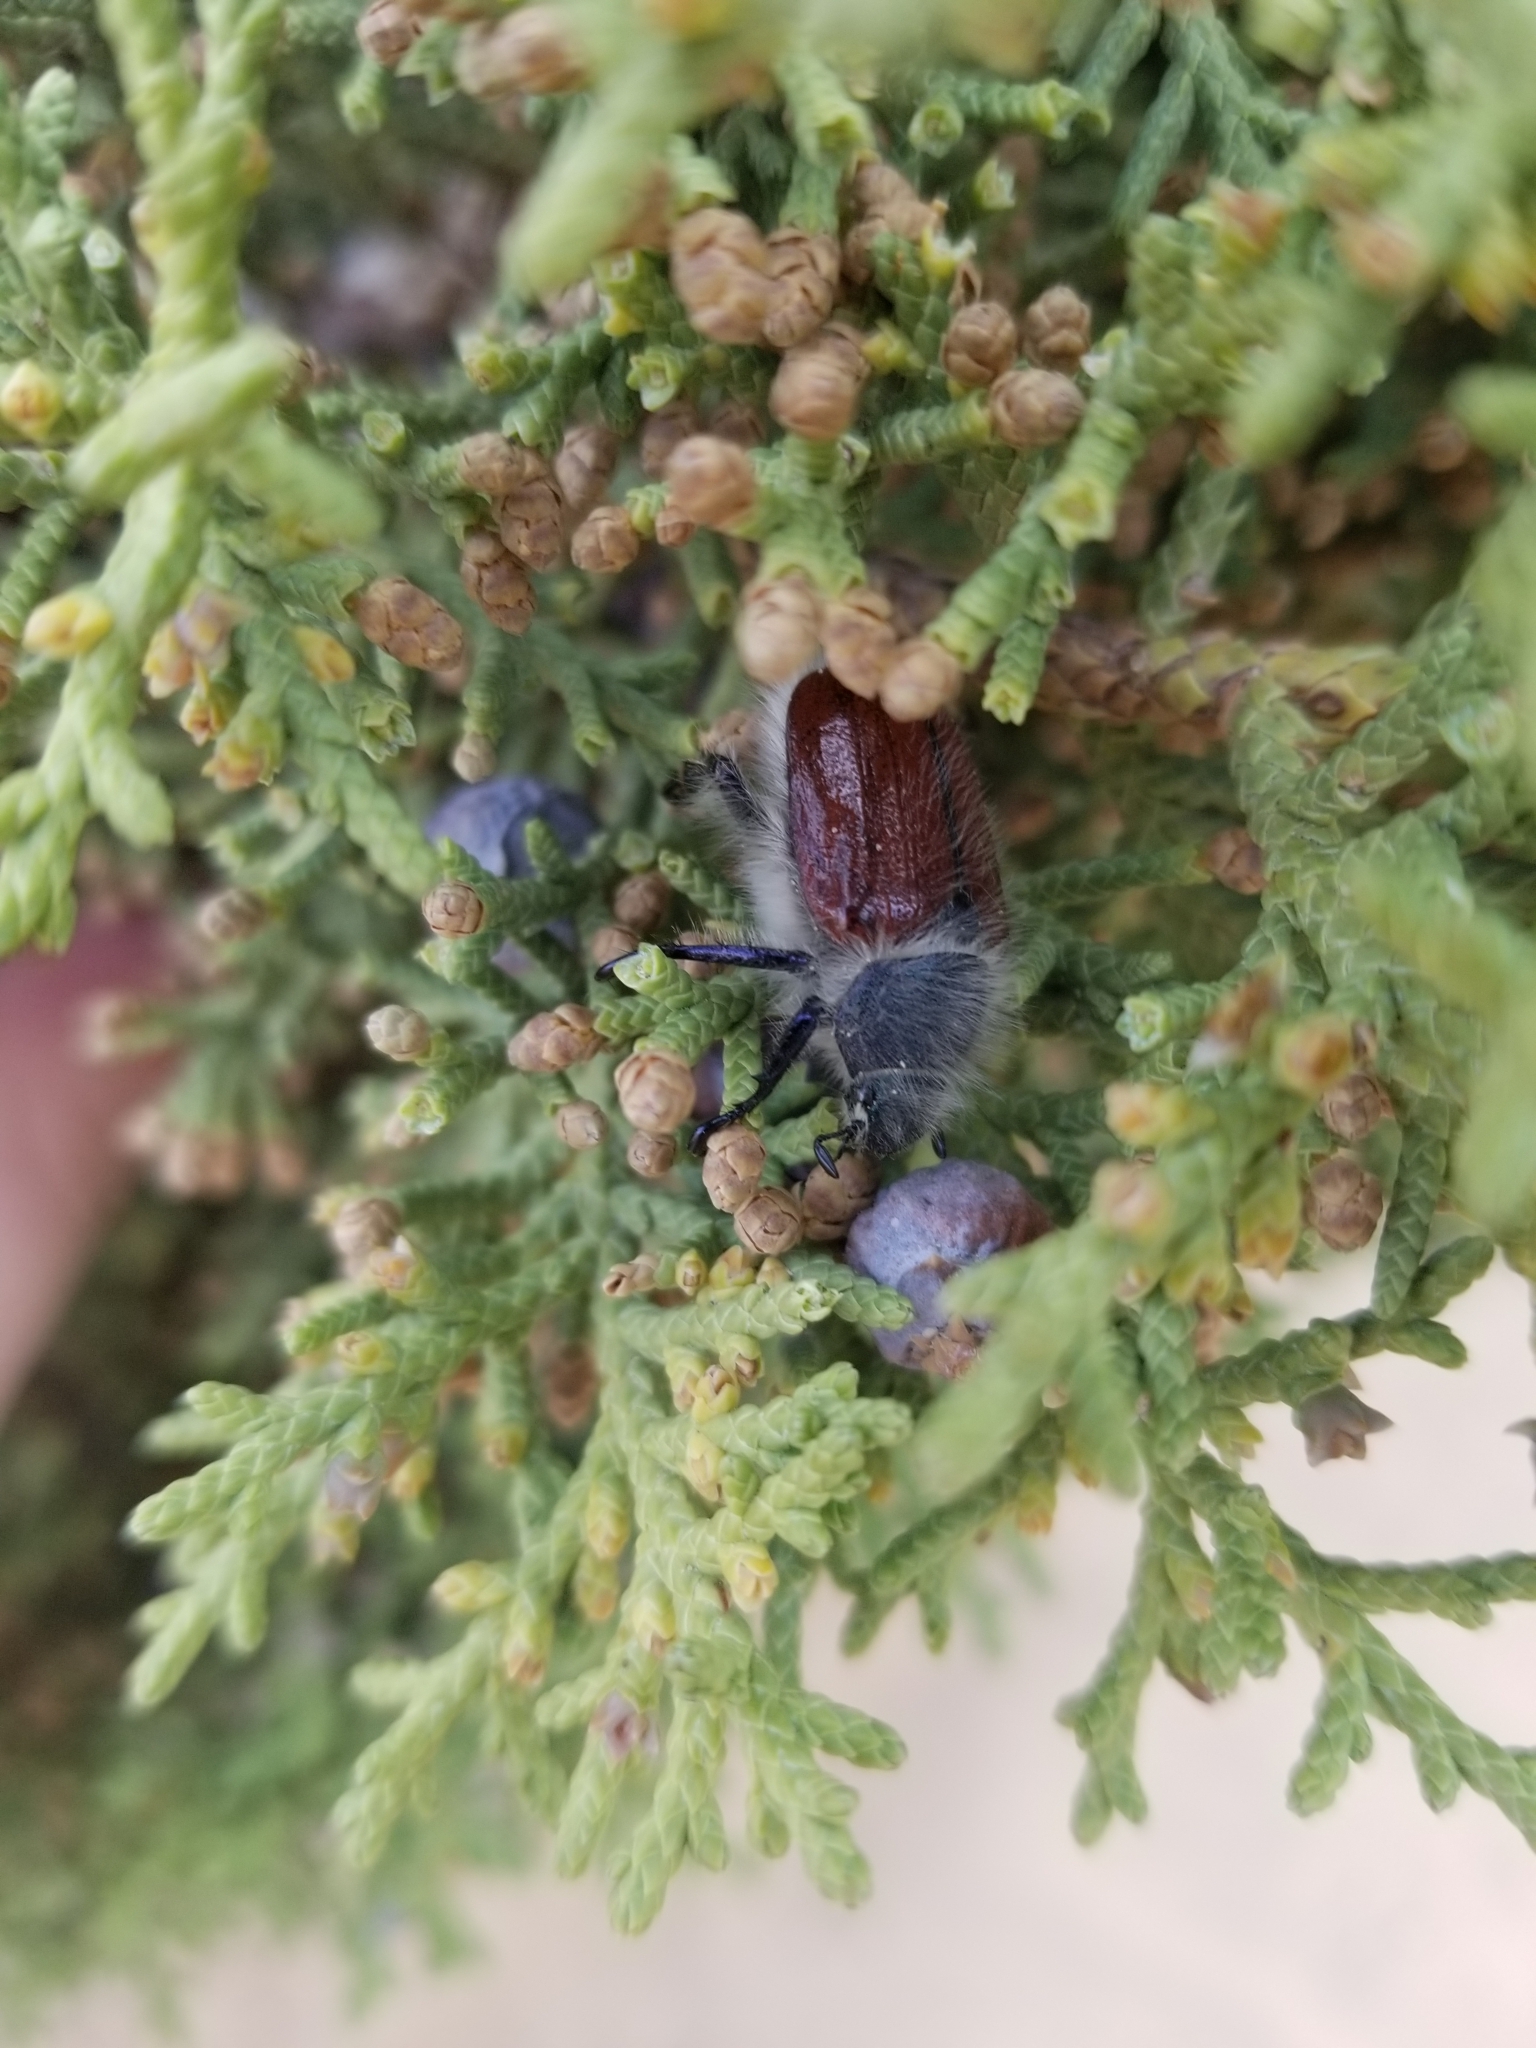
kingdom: Animalia
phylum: Arthropoda
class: Insecta
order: Coleoptera
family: Scarabaeidae
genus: Paracotalpa
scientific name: Paracotalpa granicollis
